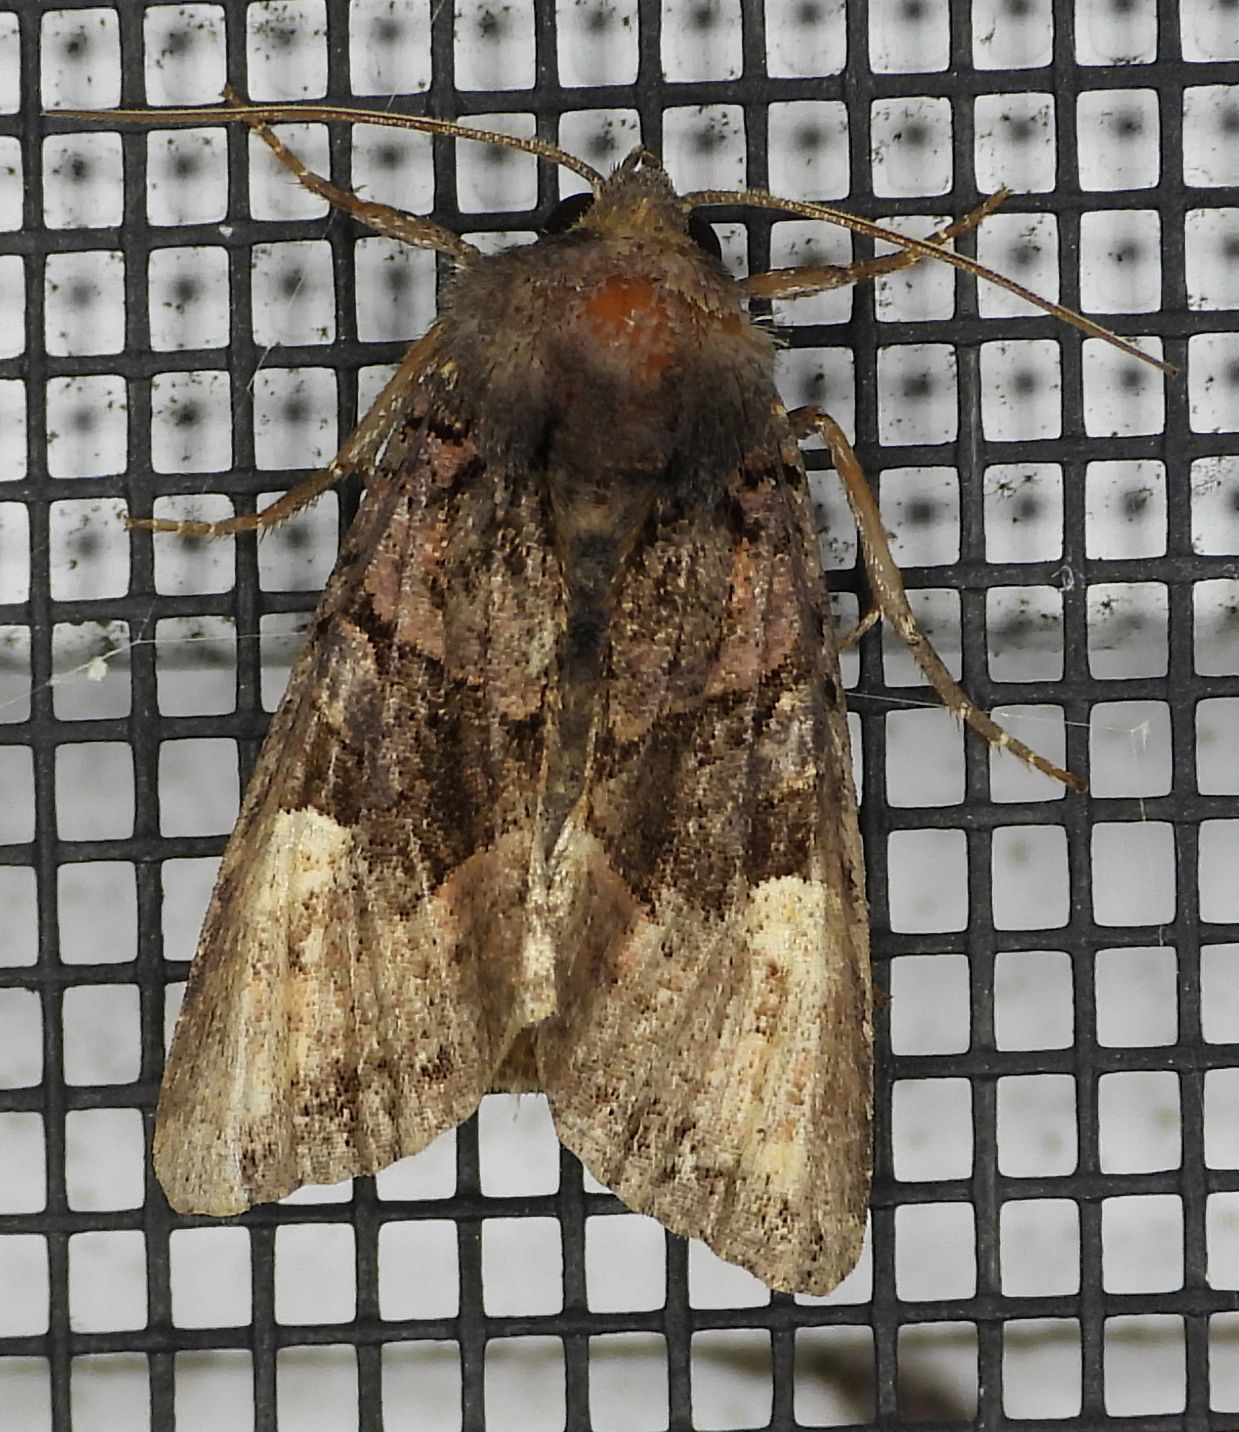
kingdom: Animalia
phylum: Arthropoda
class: Insecta
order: Lepidoptera
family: Noctuidae
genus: Euplexia
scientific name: Euplexia benesimilis
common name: American angle shades
